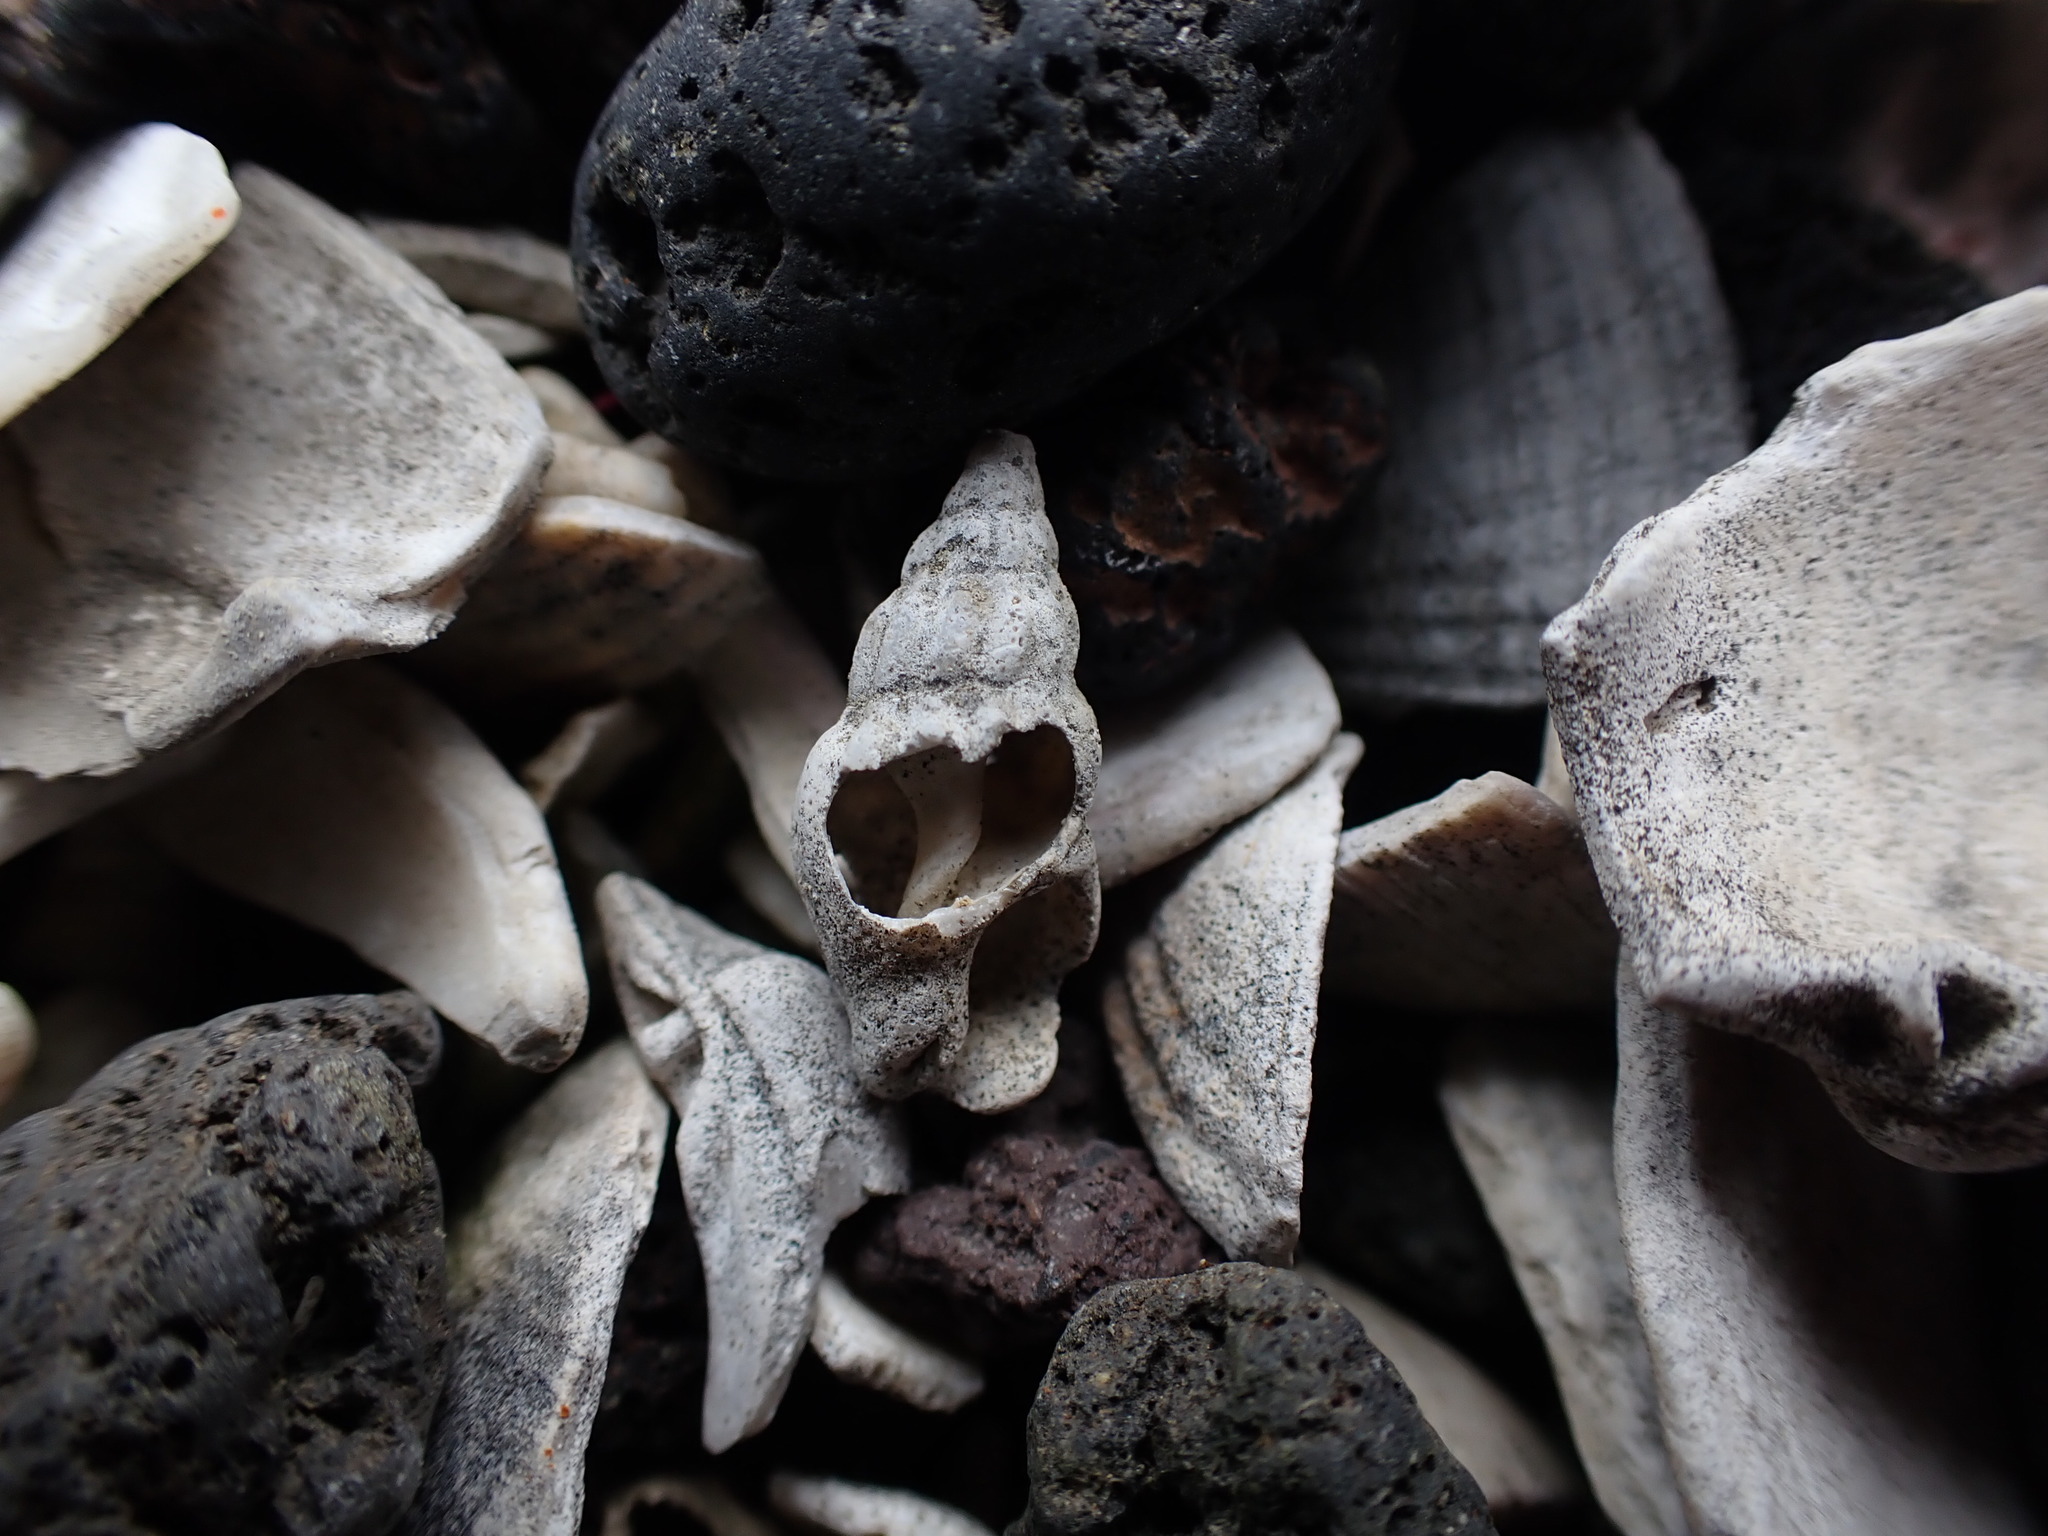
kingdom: Animalia
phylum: Mollusca
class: Gastropoda
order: Neogastropoda
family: Cominellidae
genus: Cominella
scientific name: Cominella quoyana
